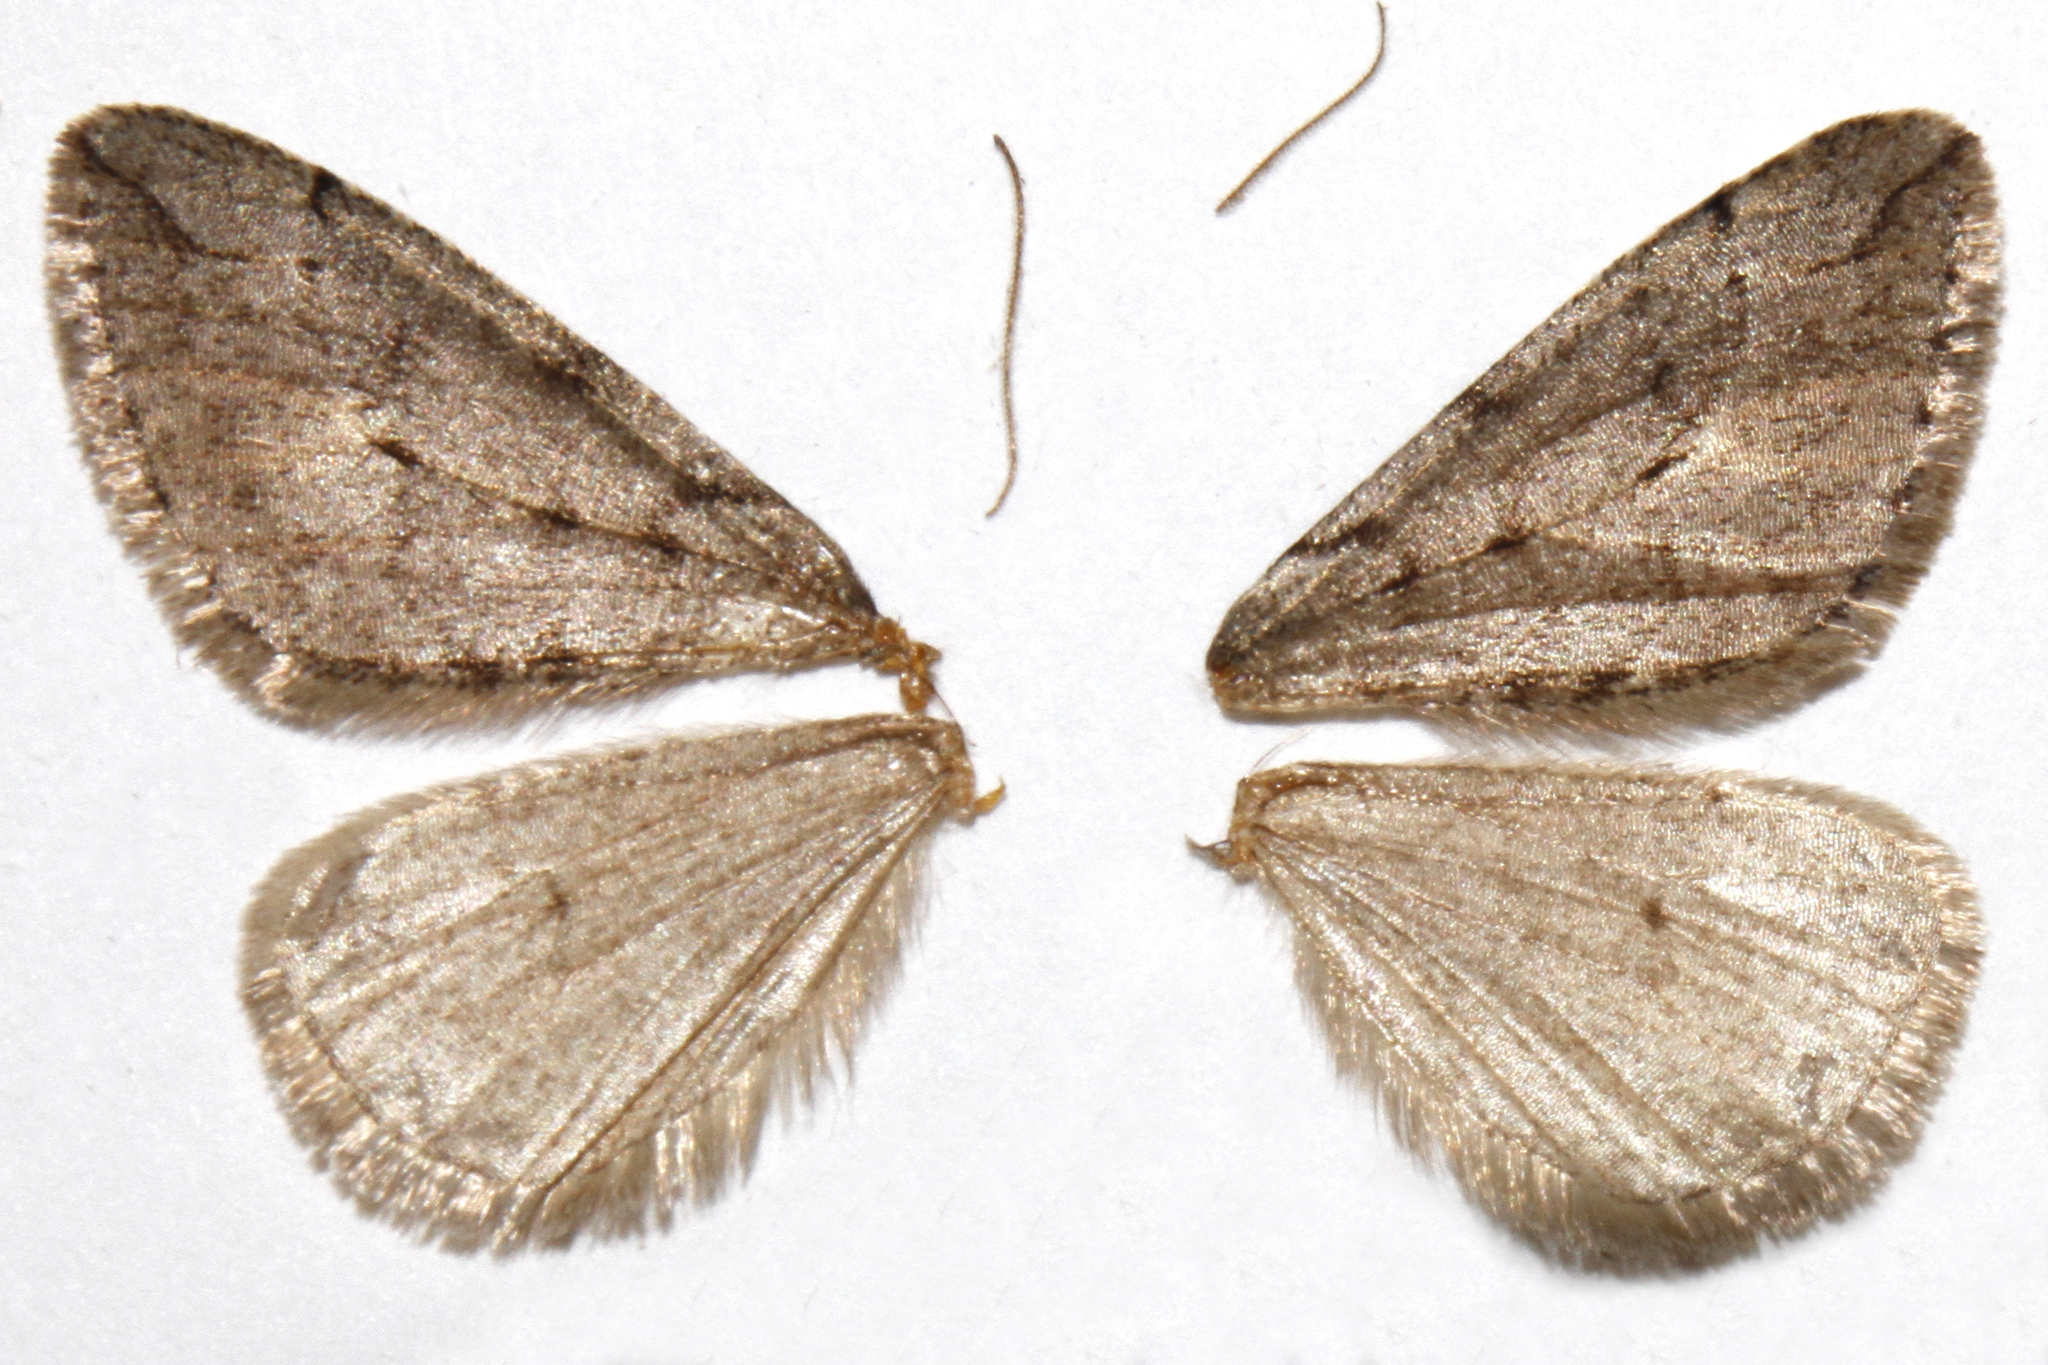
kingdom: Animalia
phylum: Arthropoda
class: Insecta
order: Lepidoptera
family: Geometridae
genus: Paleacrita
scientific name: Paleacrita vernata
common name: Spring cankerworm
